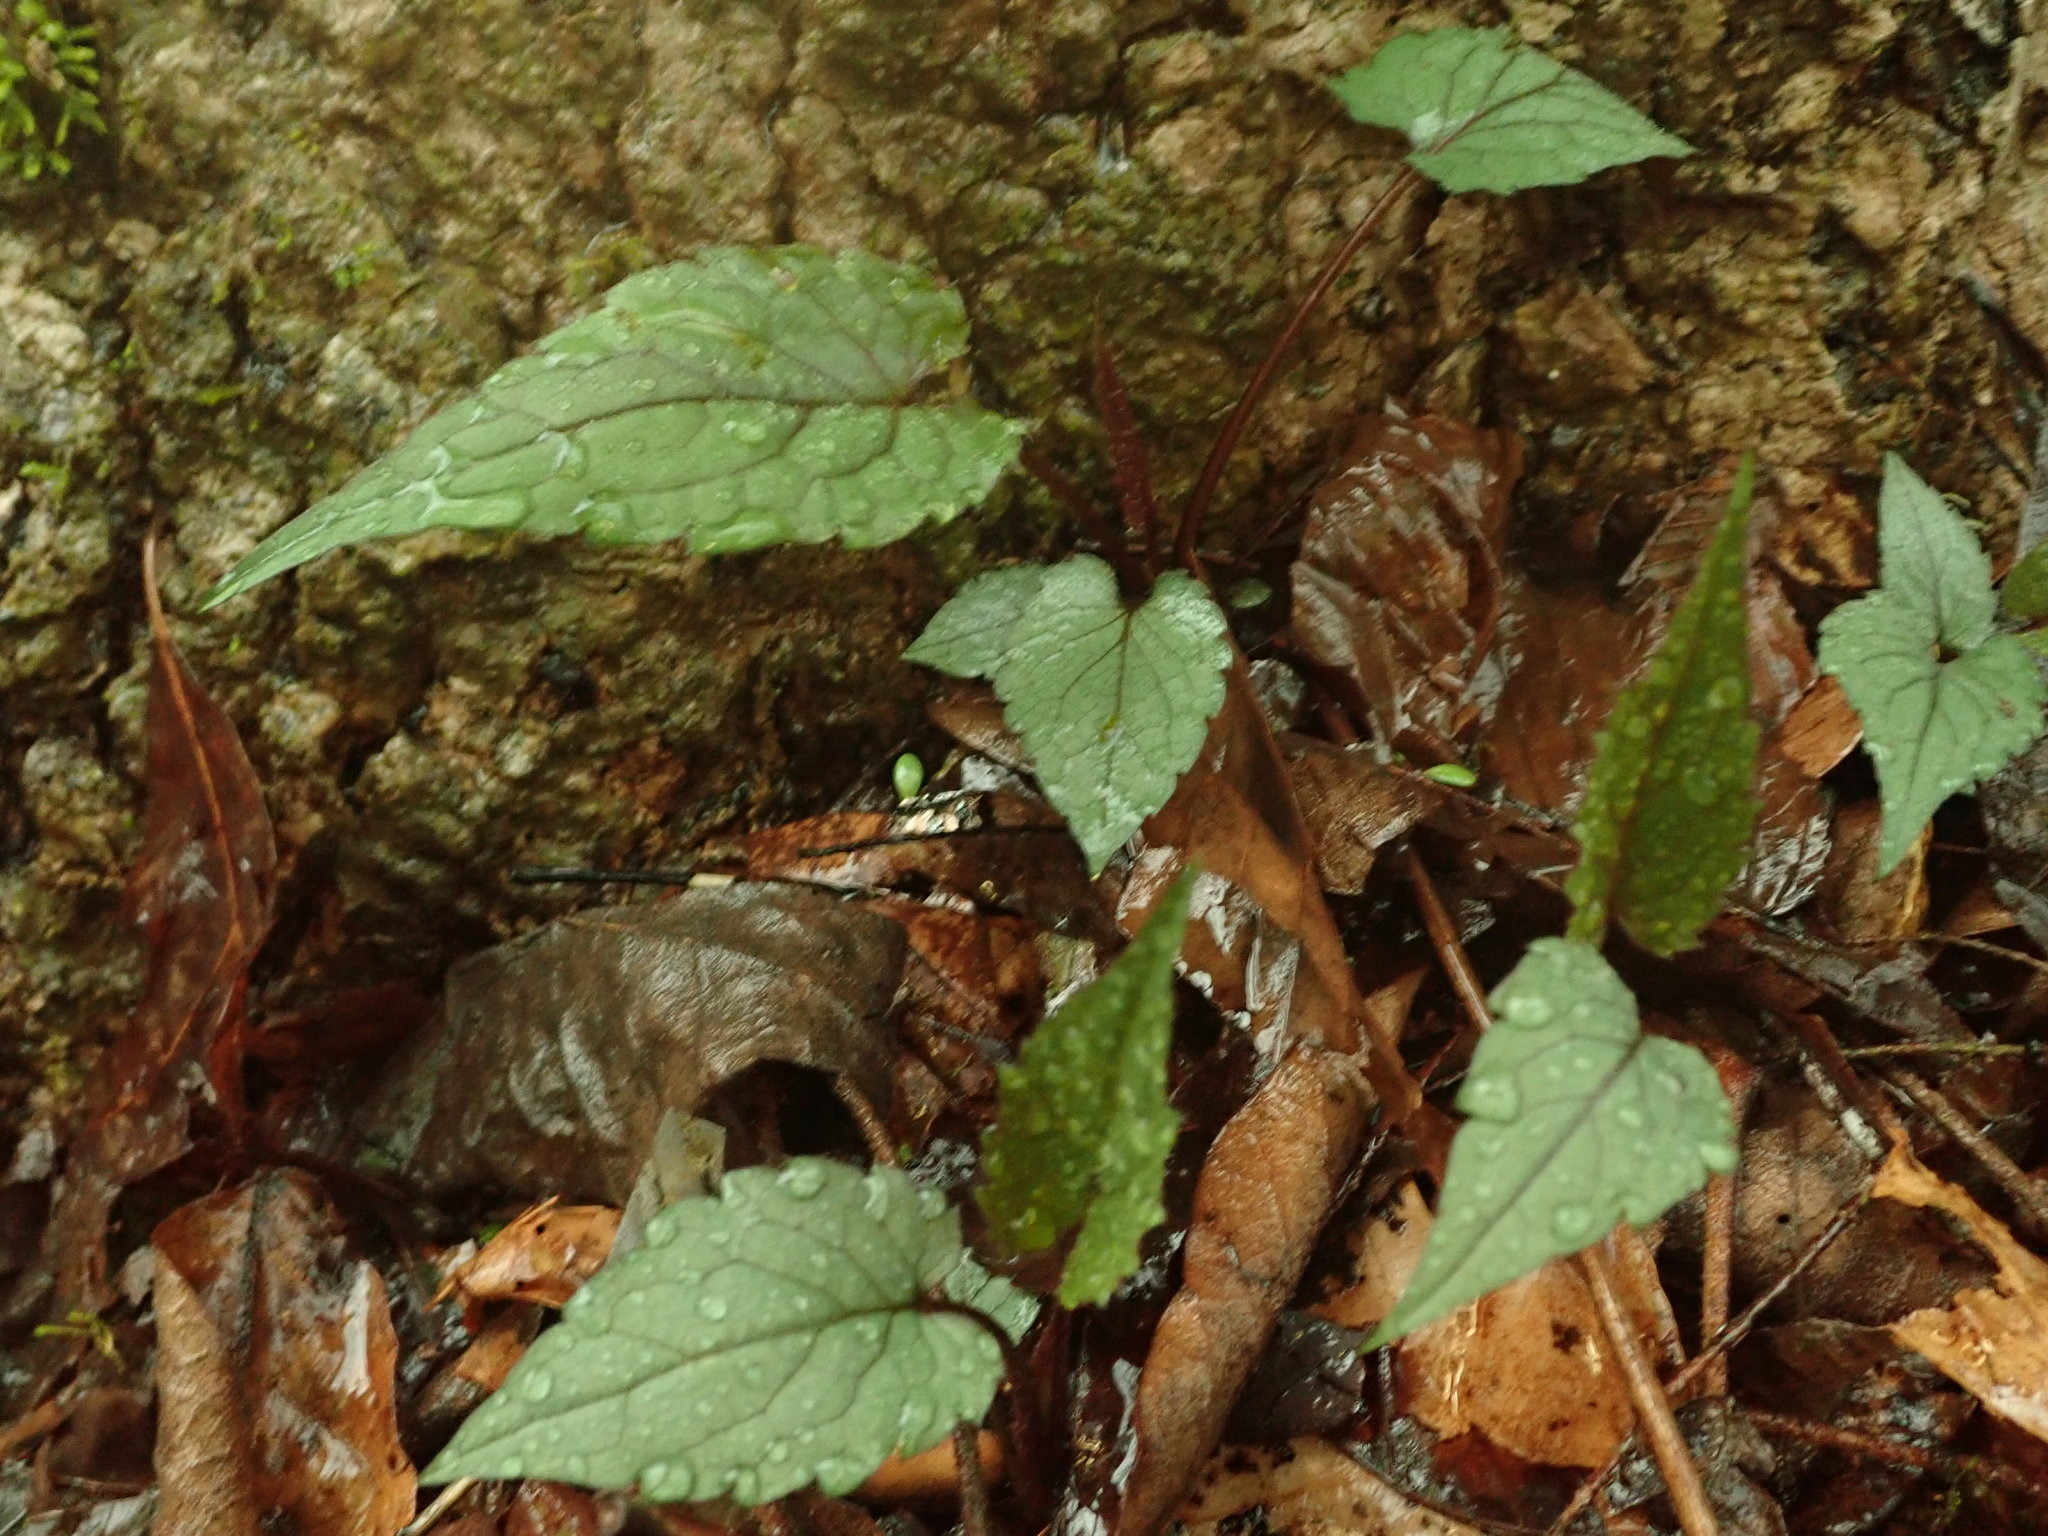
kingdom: Plantae
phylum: Tracheophyta
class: Magnoliopsida
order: Asterales
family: Asteraceae
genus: Eurybia
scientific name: Eurybia divaricata
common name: White wood aster
